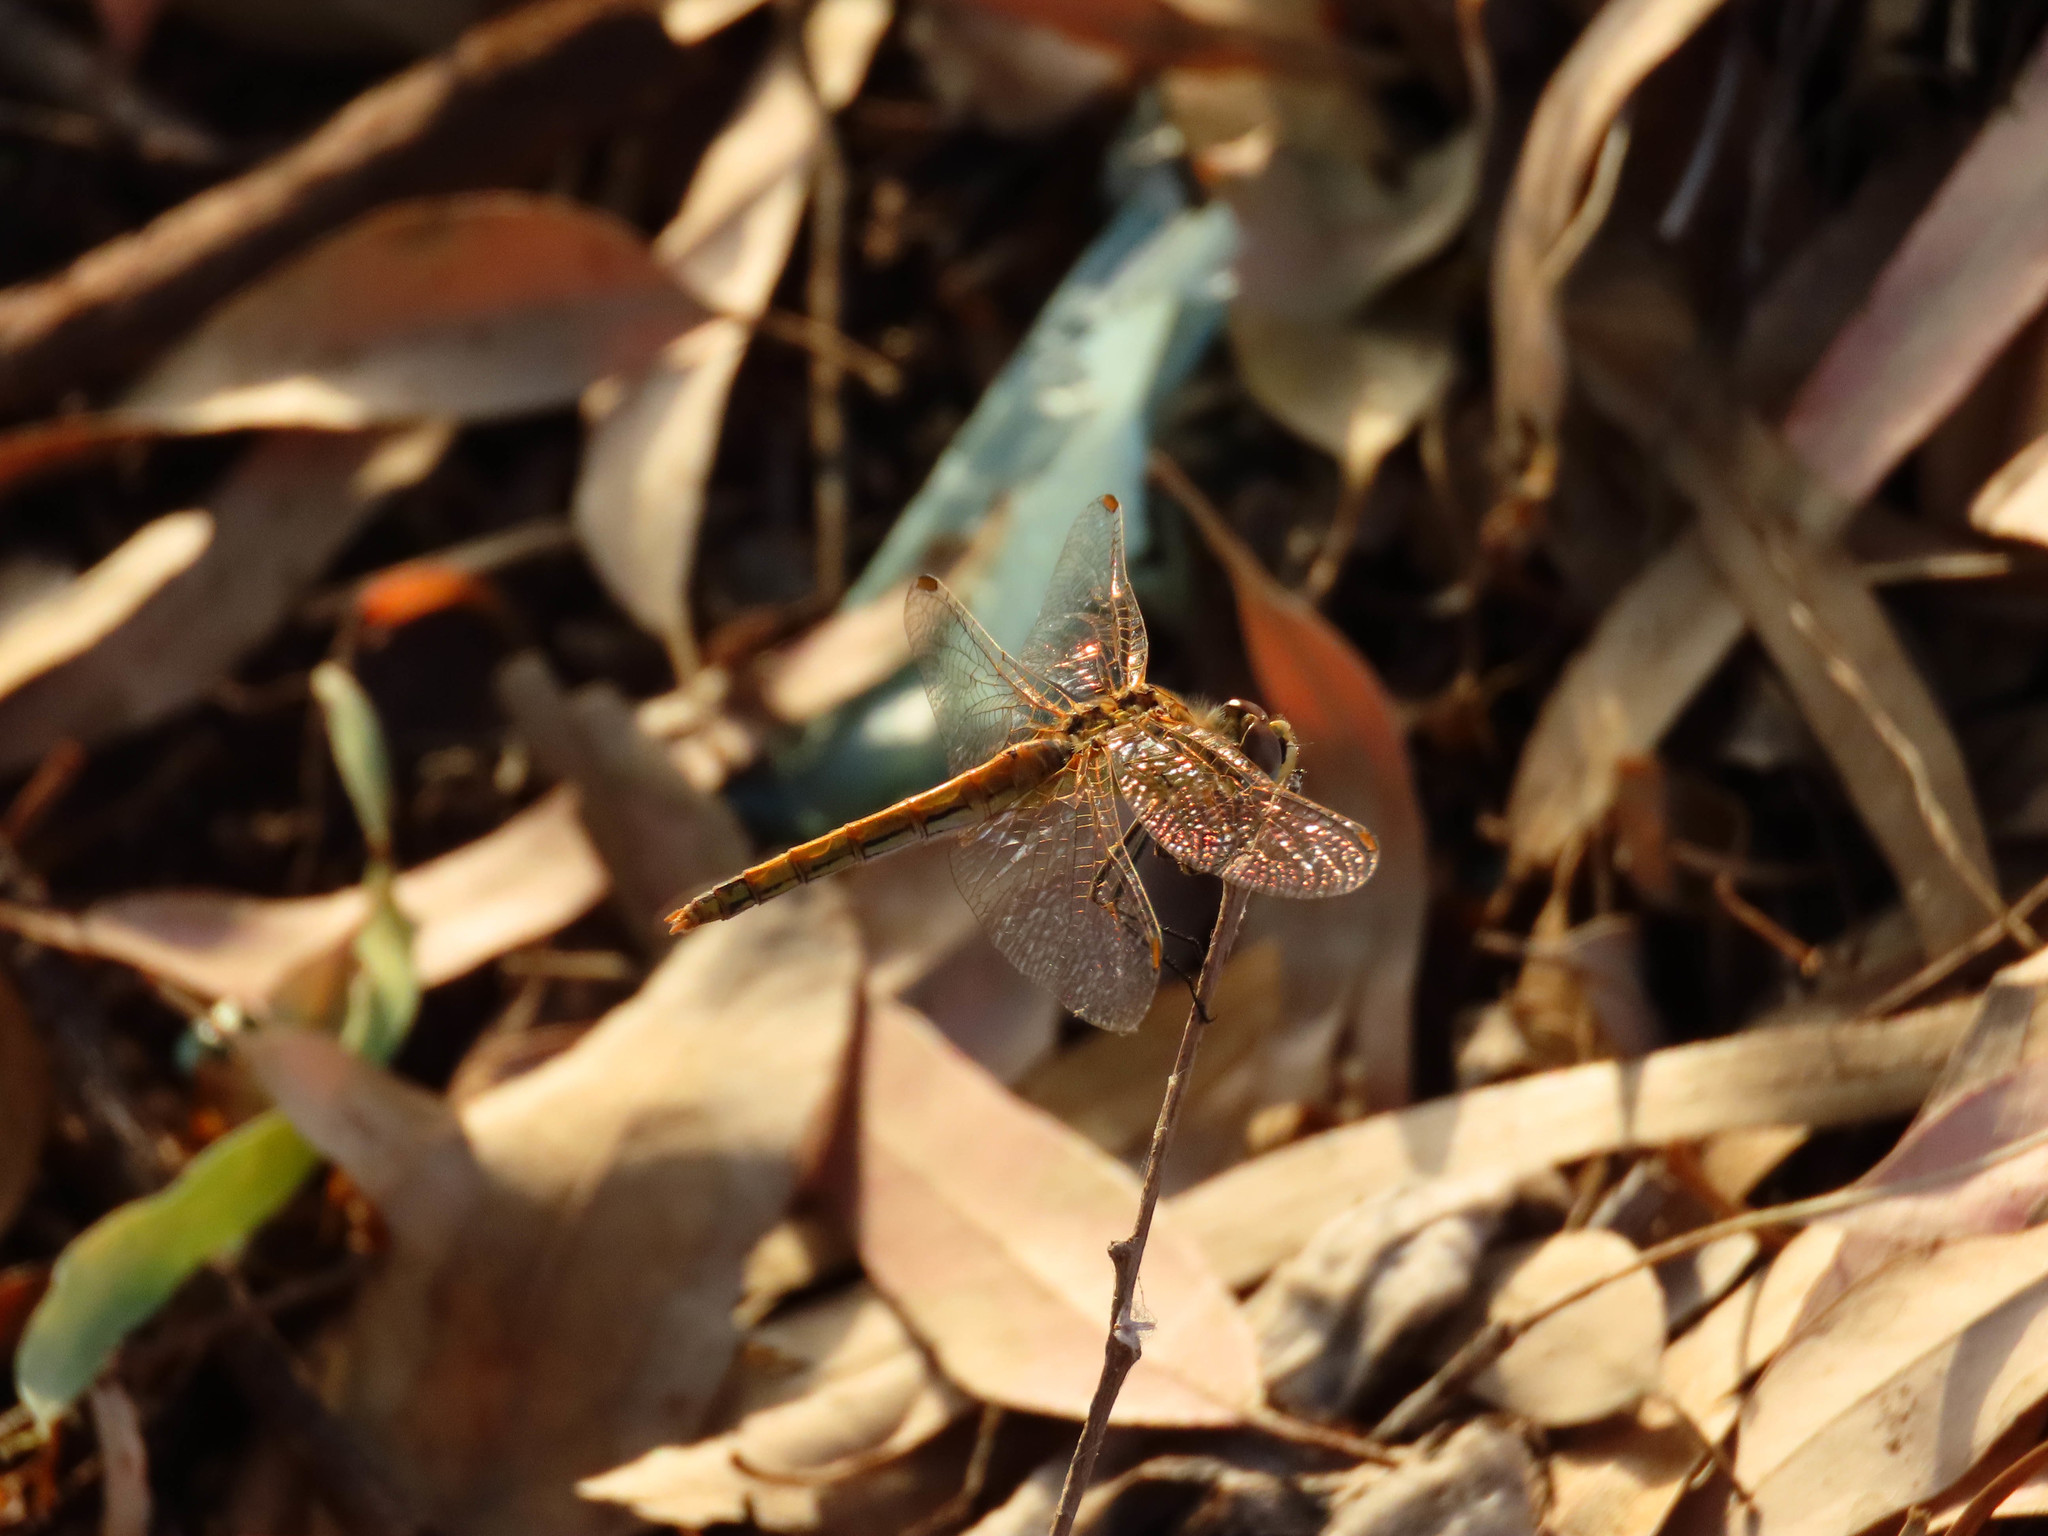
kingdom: Animalia
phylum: Arthropoda
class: Insecta
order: Odonata
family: Libellulidae
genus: Sympetrum
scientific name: Sympetrum fonscolombii
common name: Red-veined darter
